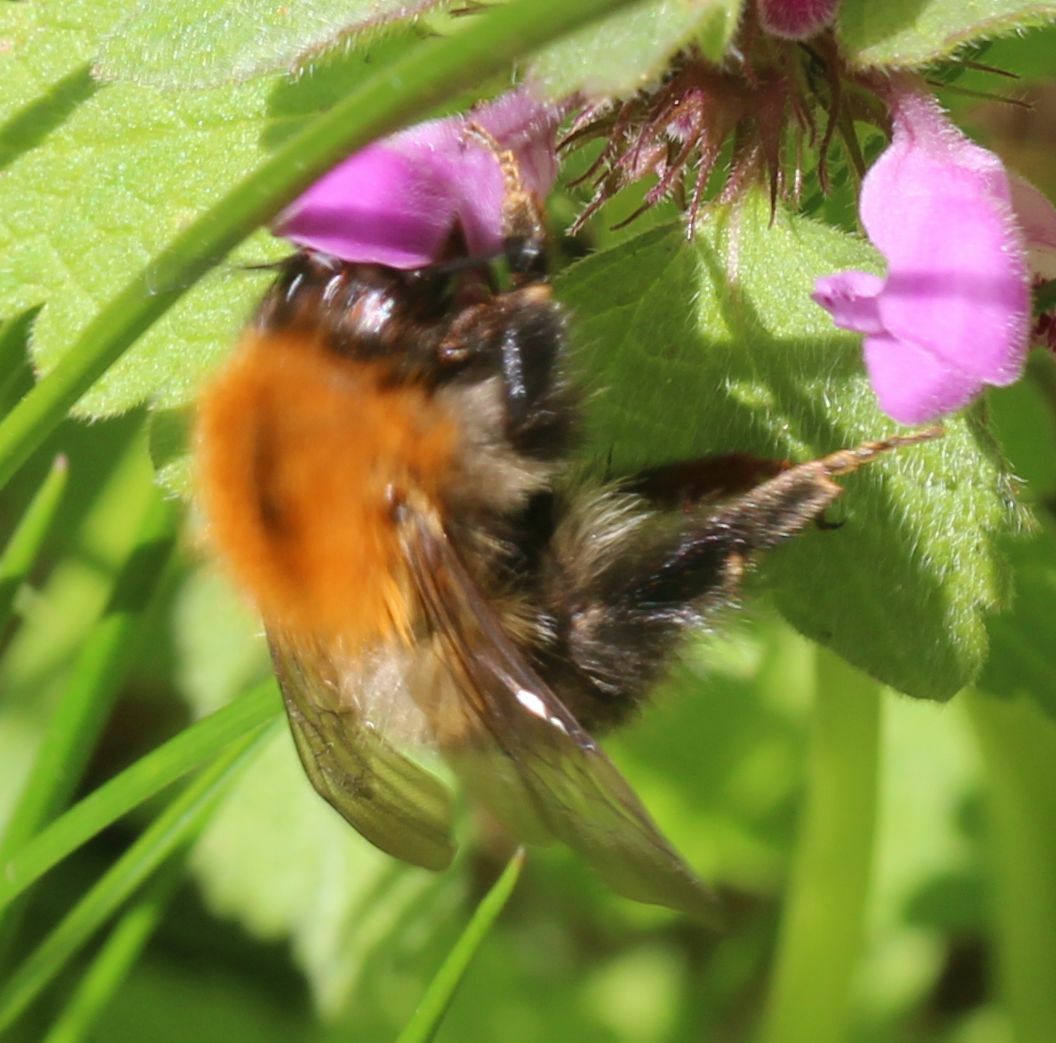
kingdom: Animalia
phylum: Arthropoda
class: Insecta
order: Hymenoptera
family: Apidae
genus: Bombus
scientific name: Bombus pascuorum
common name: Common carder bee
